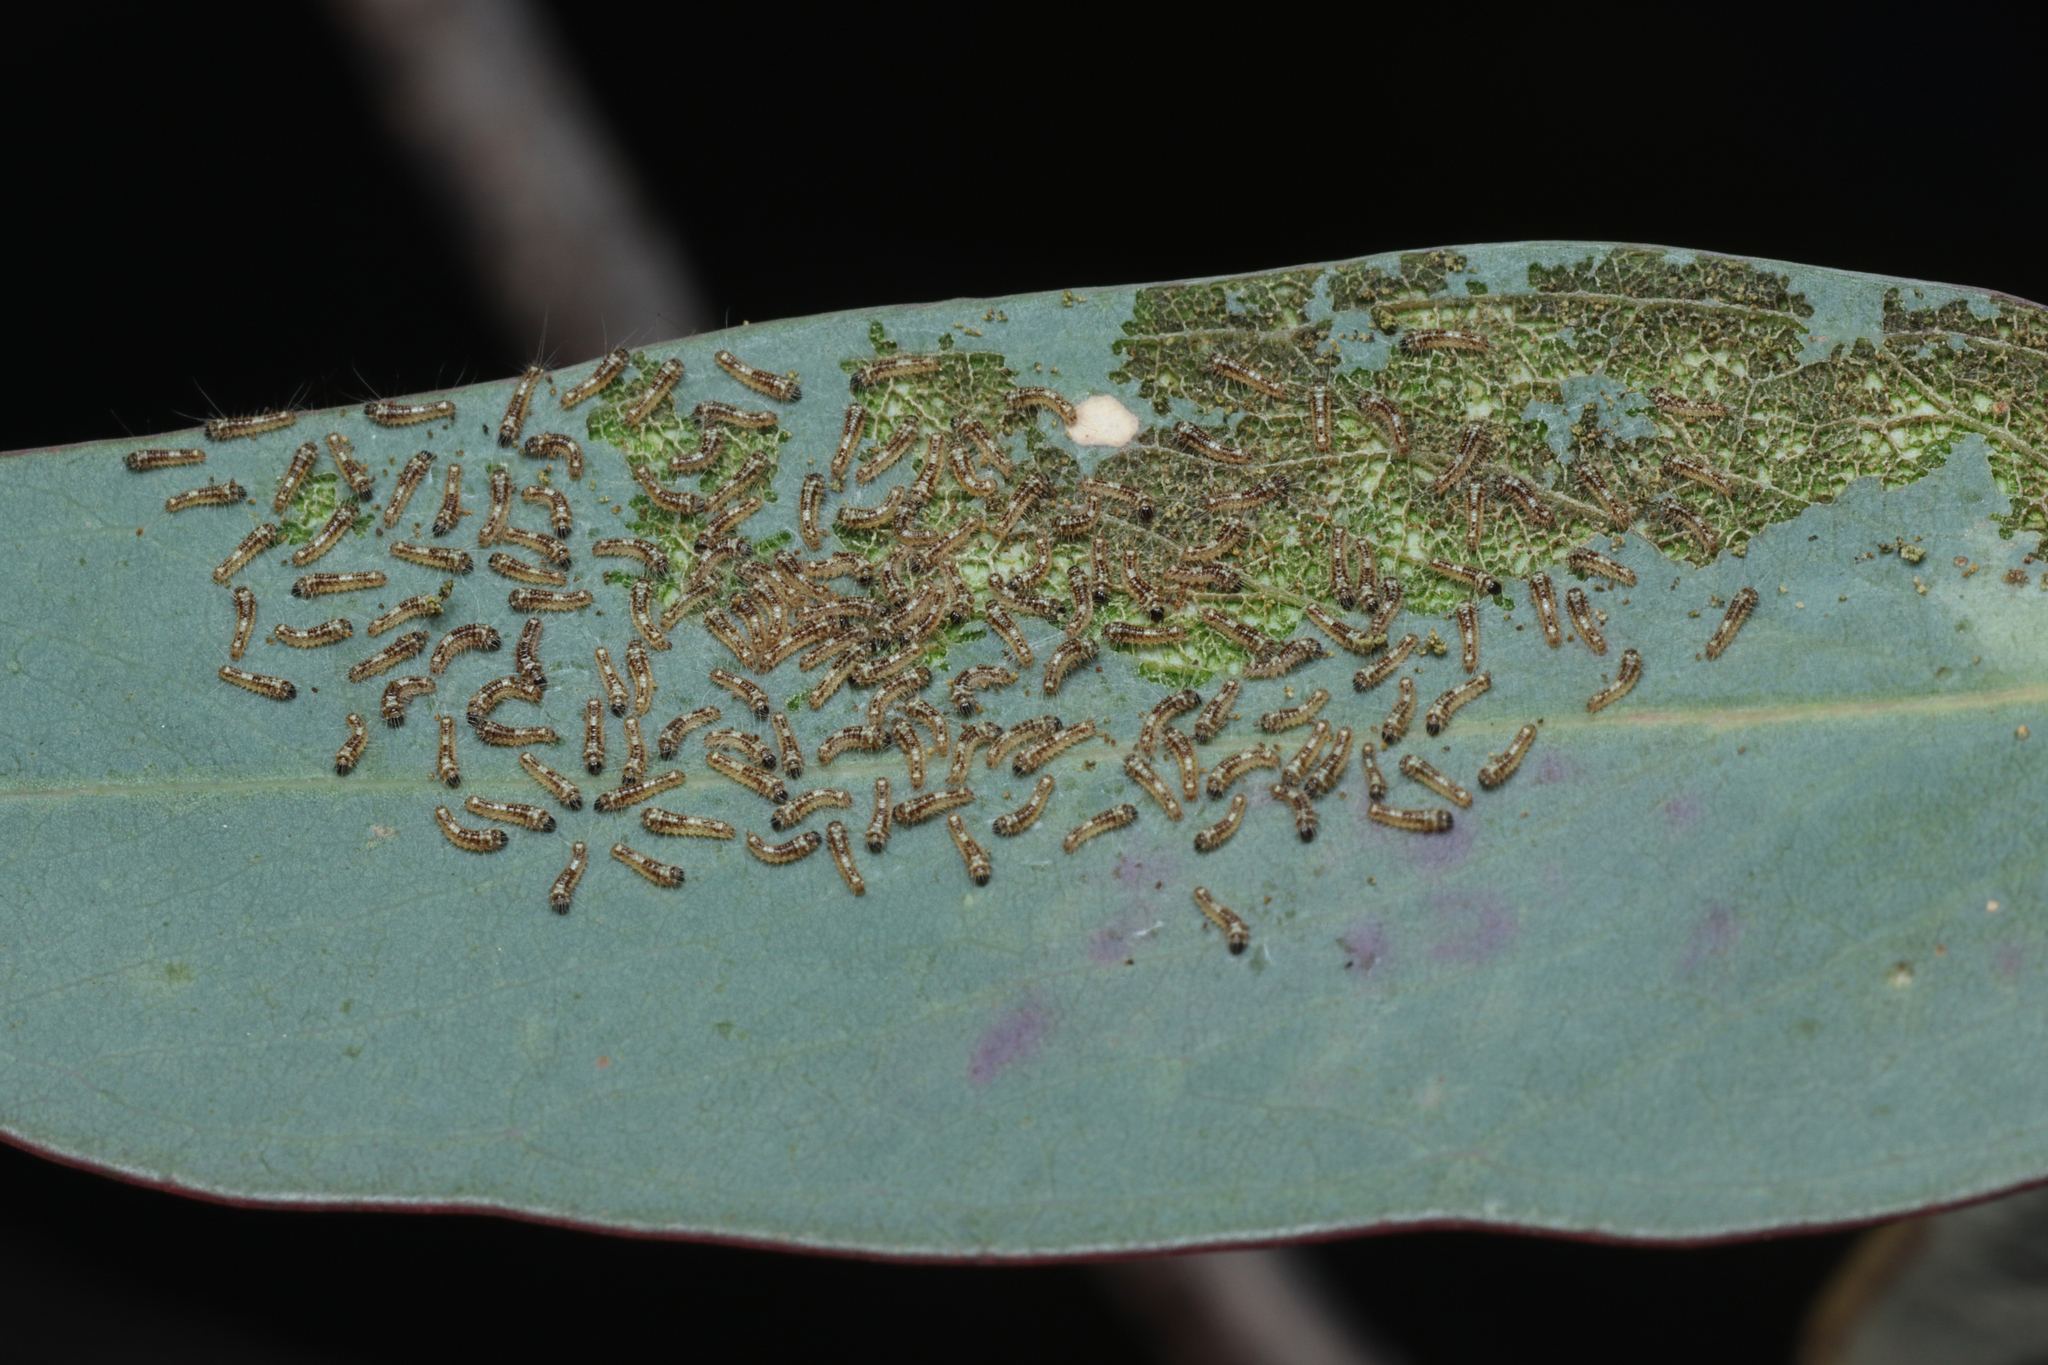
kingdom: Animalia
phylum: Arthropoda
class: Insecta
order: Lepidoptera
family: Nolidae
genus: Uraba
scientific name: Uraba lugens
